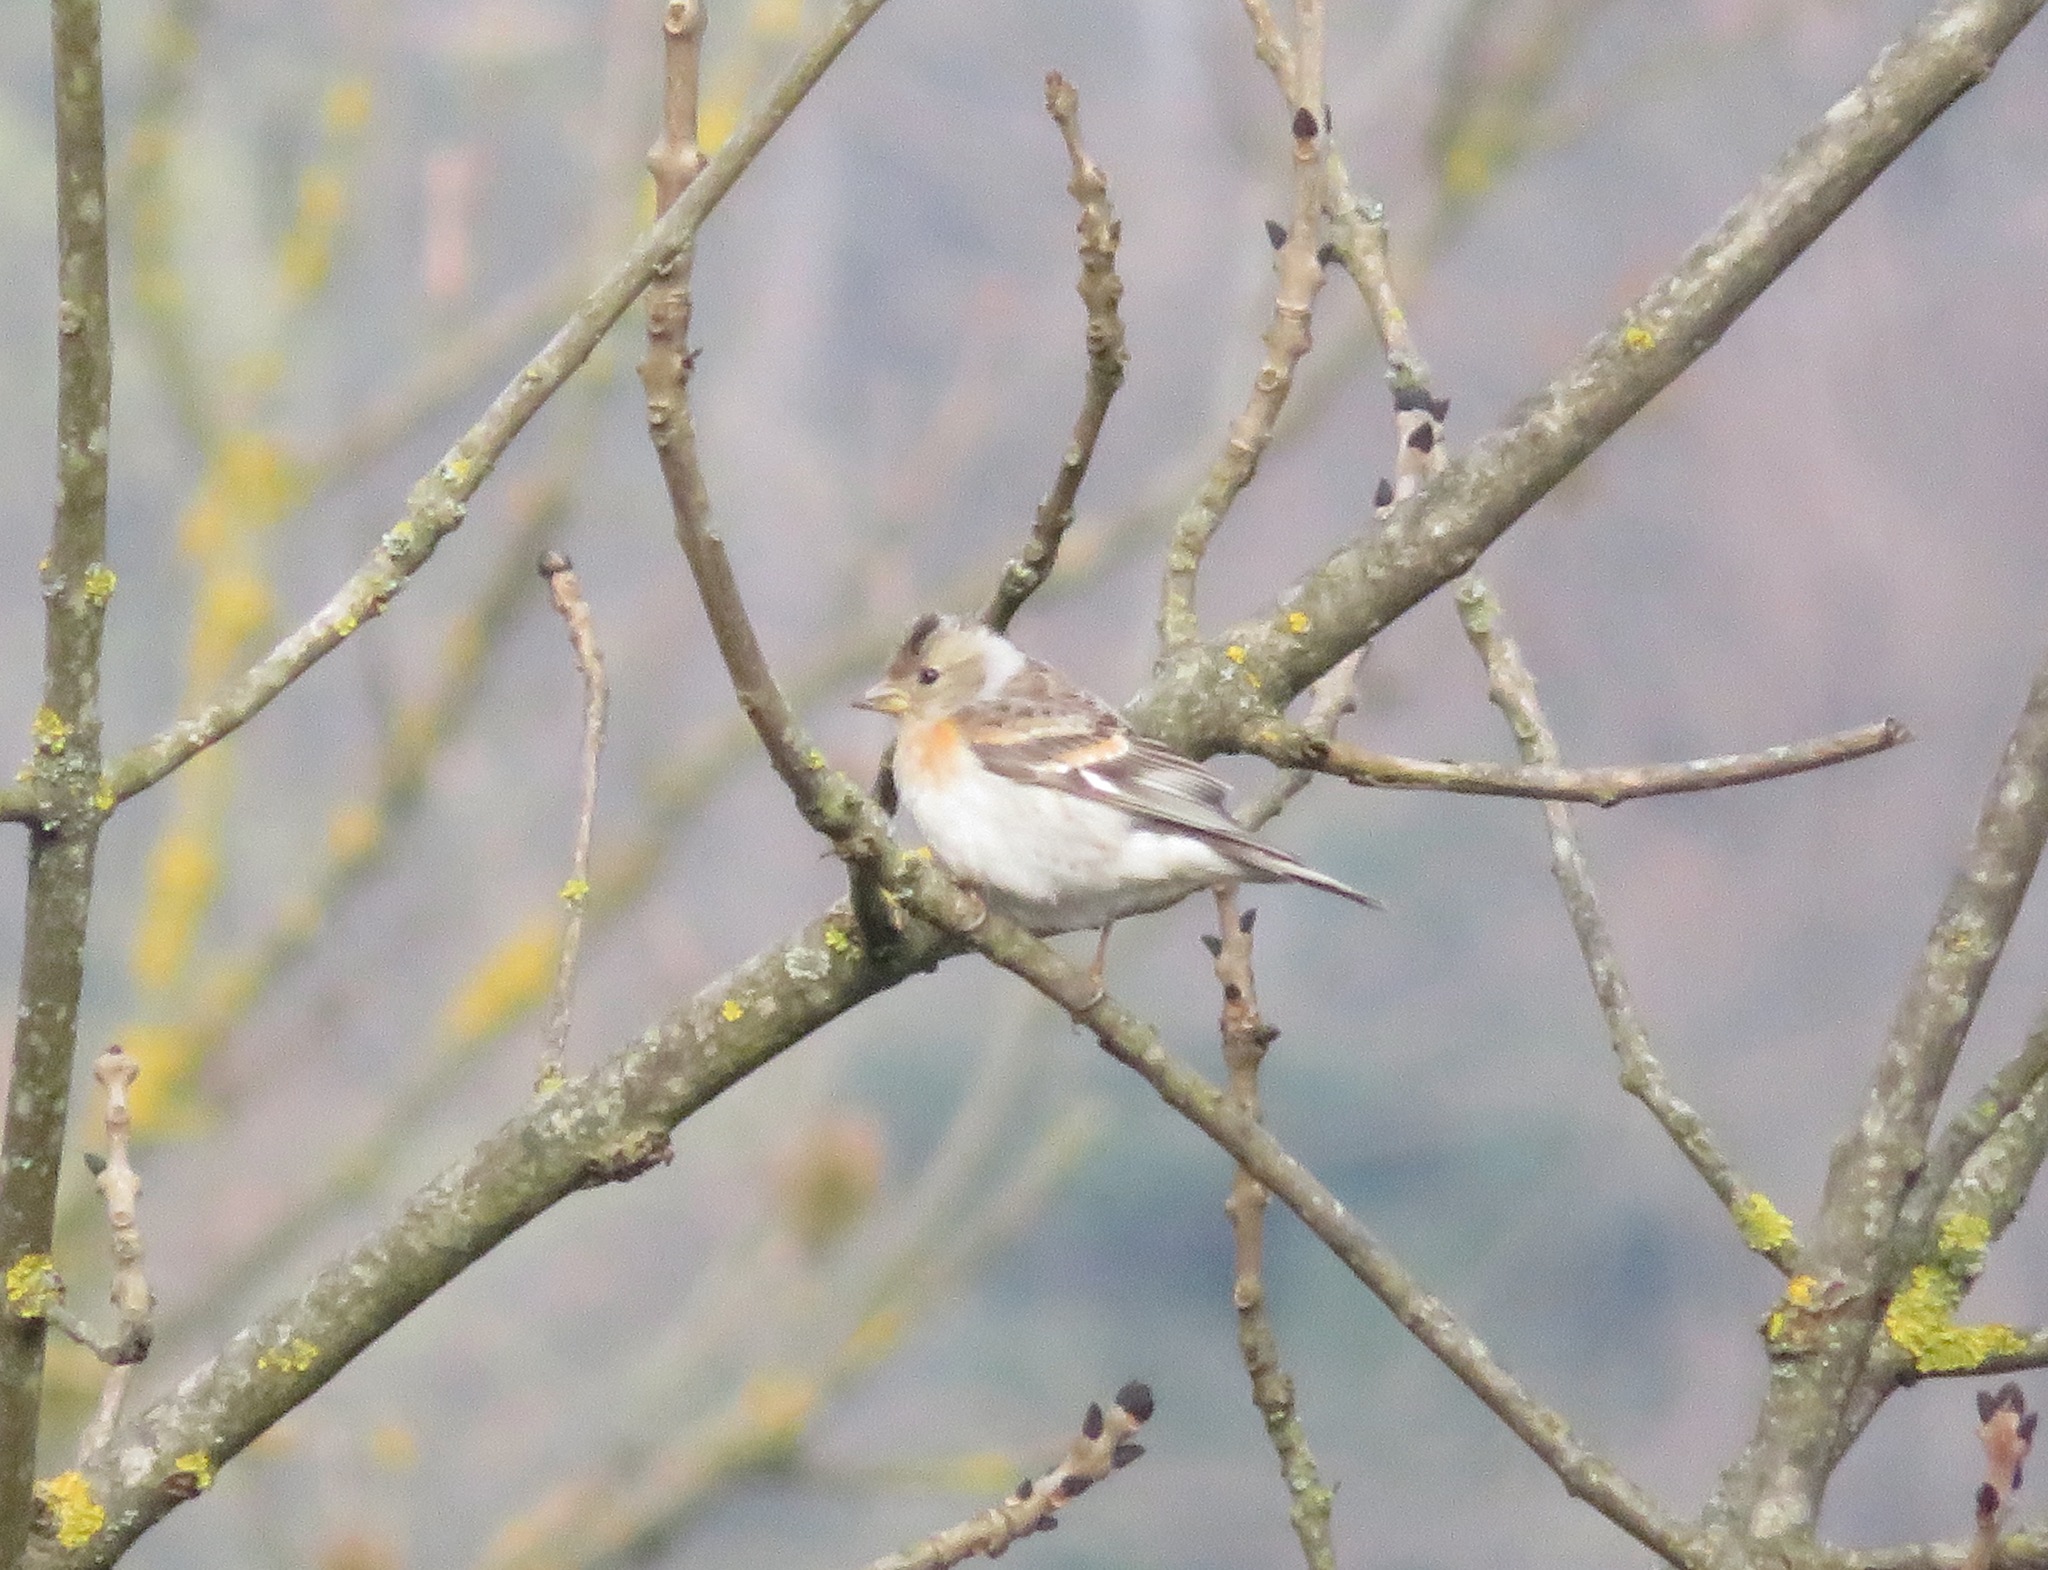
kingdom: Animalia
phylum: Chordata
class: Aves
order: Passeriformes
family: Fringillidae
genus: Fringilla
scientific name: Fringilla montifringilla
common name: Brambling
